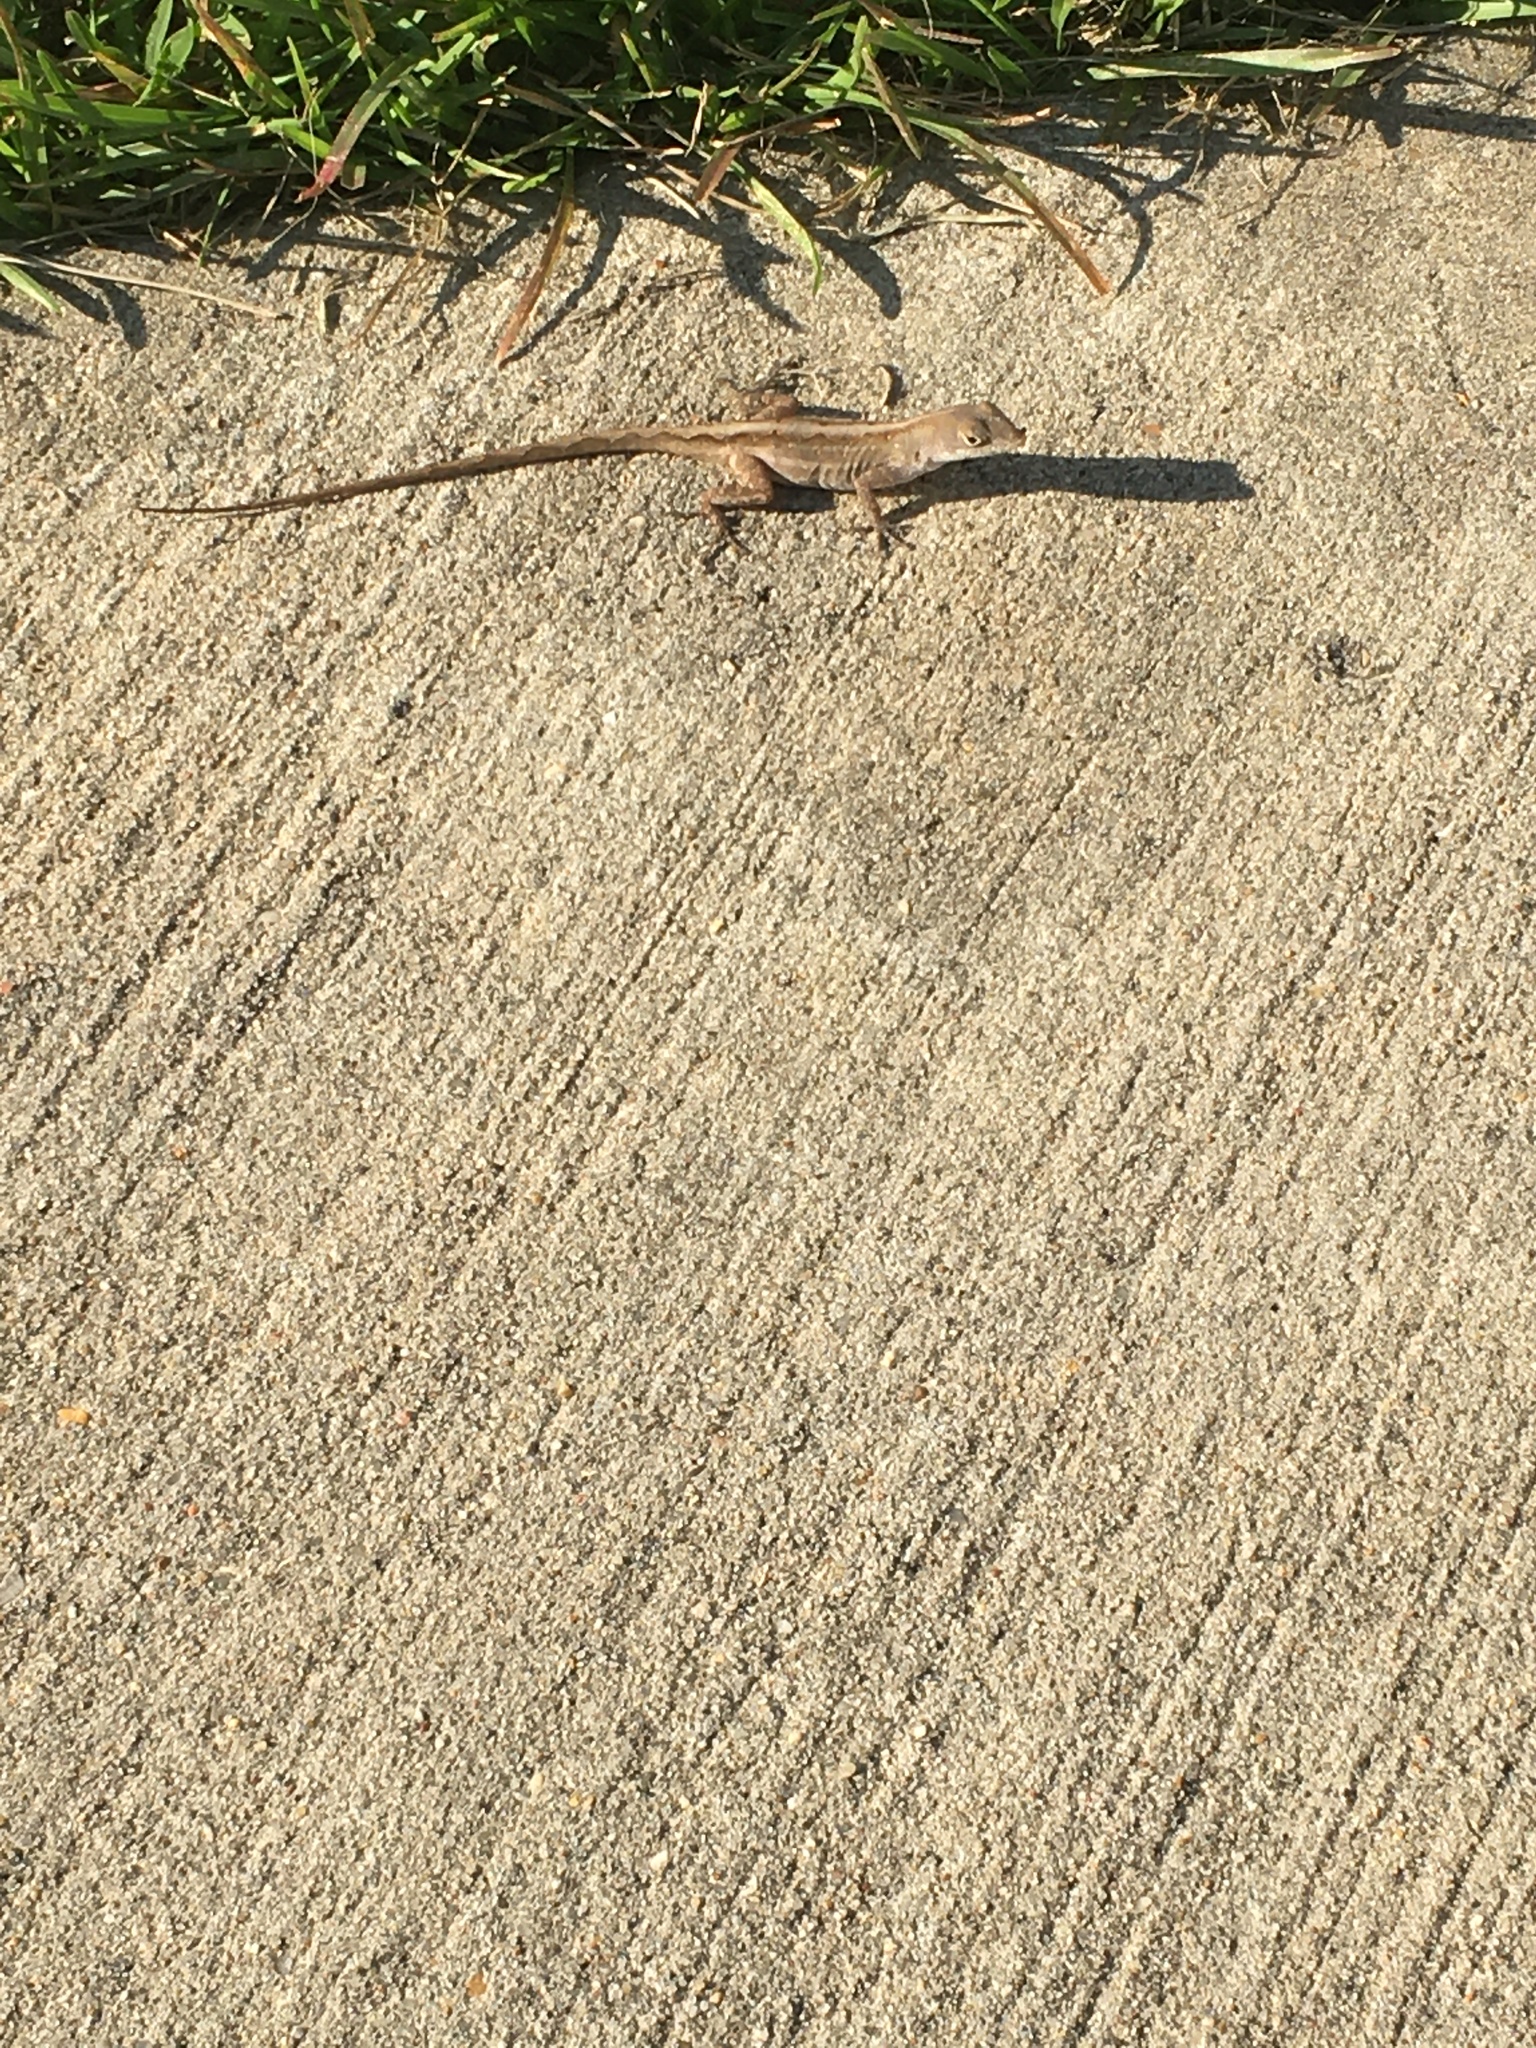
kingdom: Animalia
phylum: Chordata
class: Squamata
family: Dactyloidae
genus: Anolis
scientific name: Anolis sagrei
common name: Brown anole
